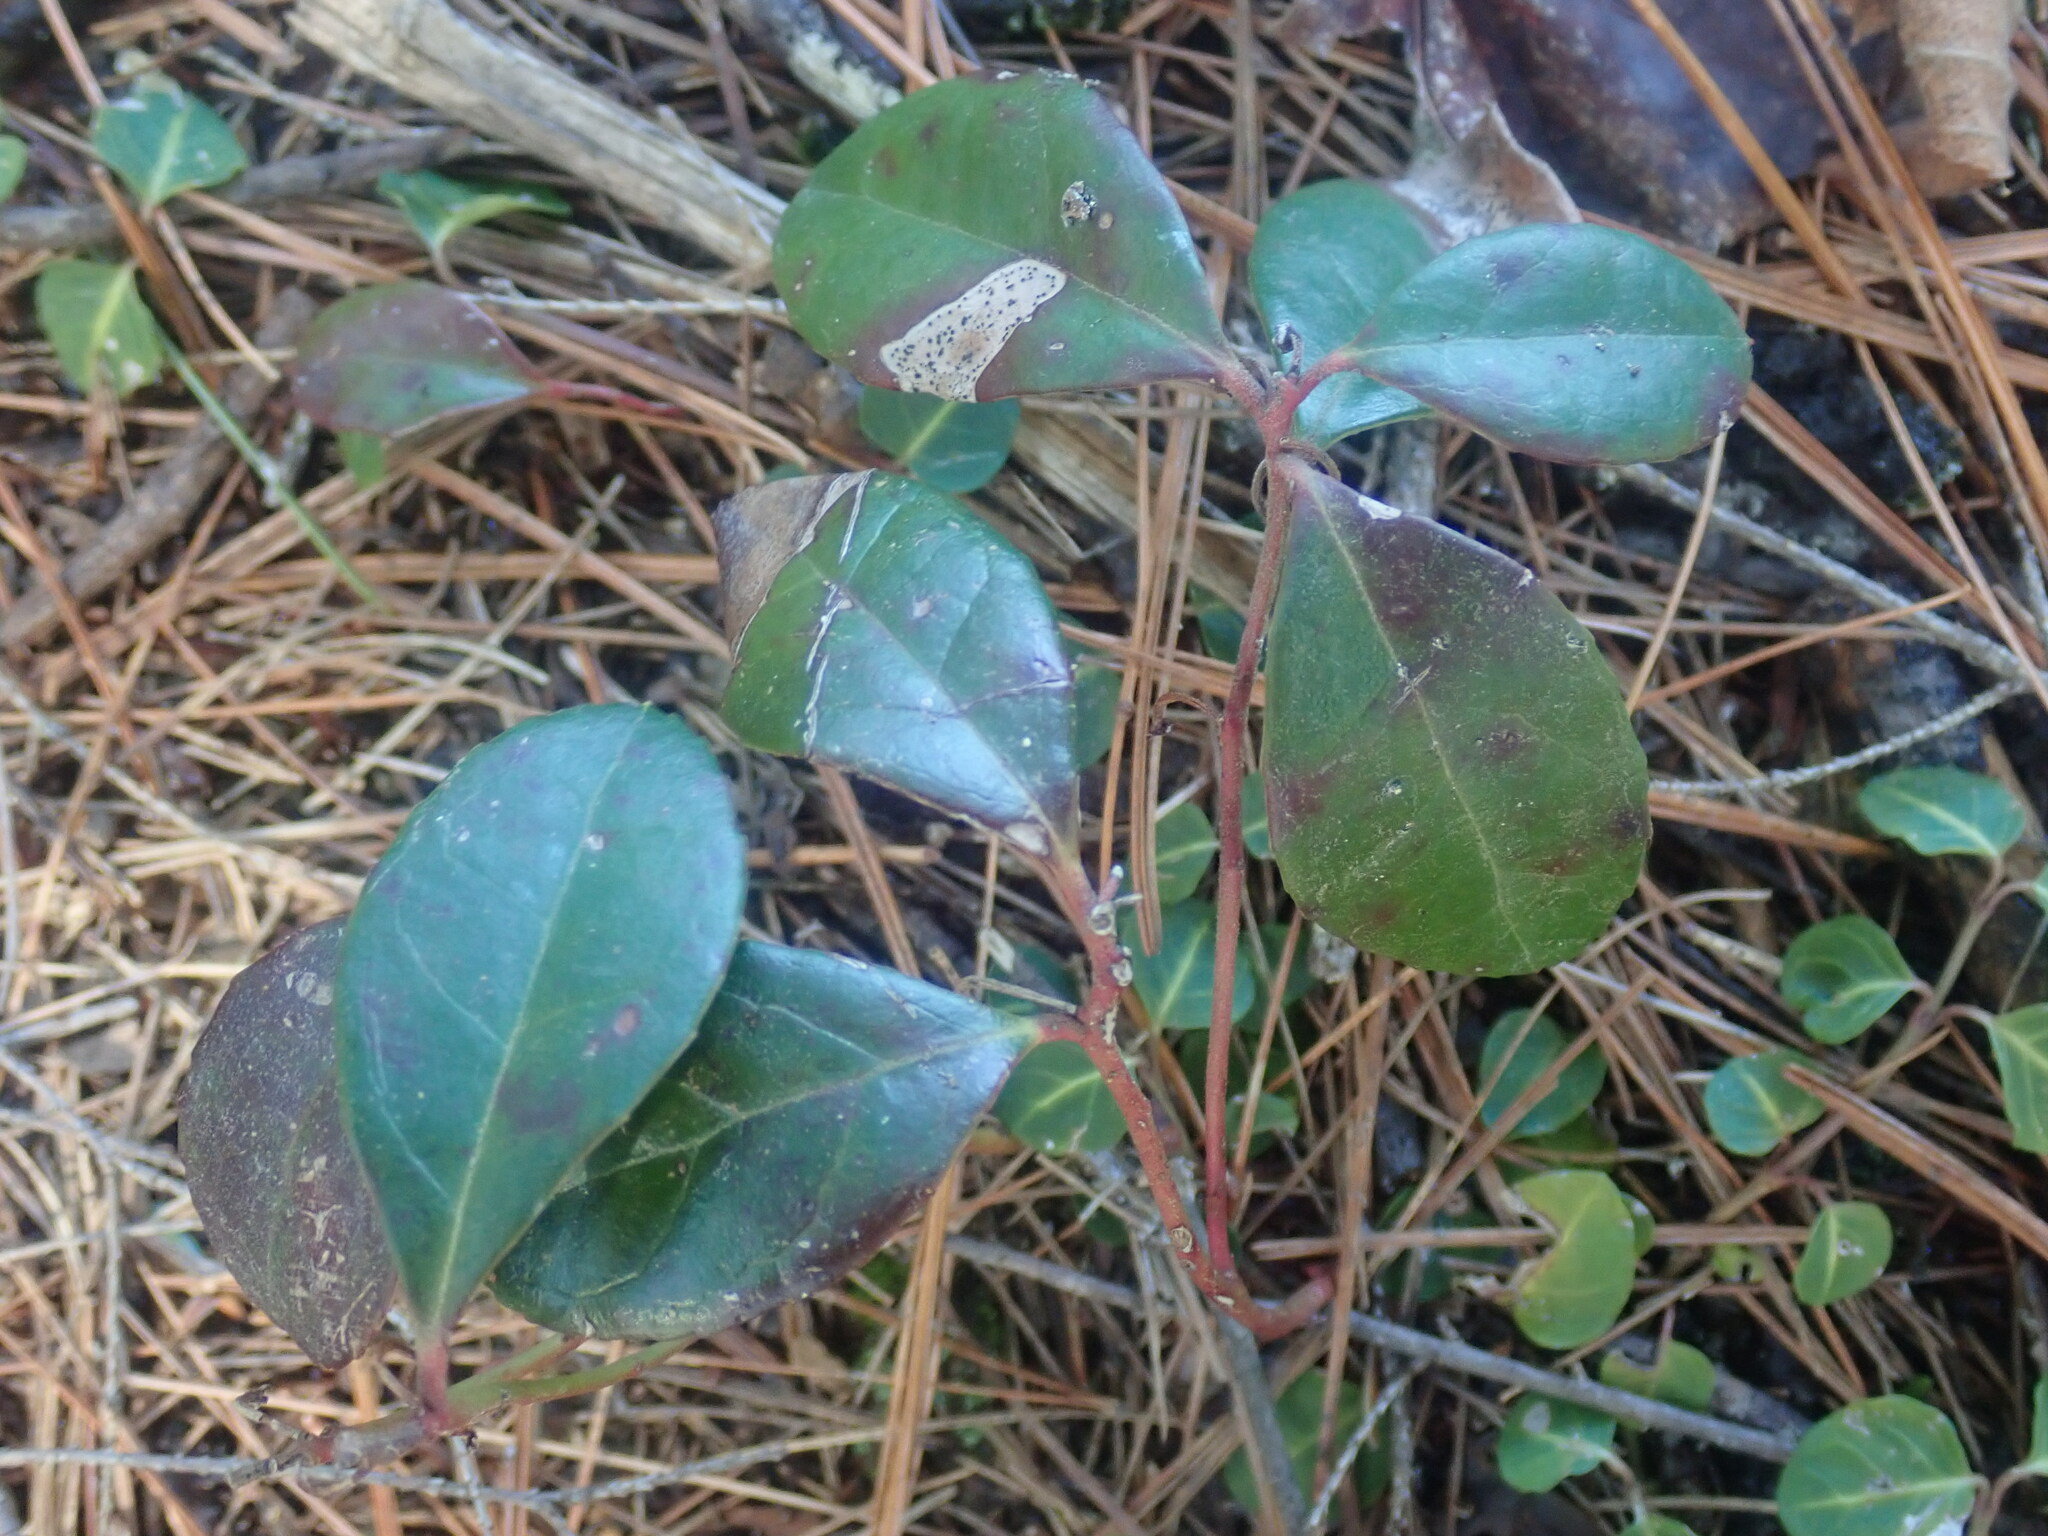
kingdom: Plantae
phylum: Tracheophyta
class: Magnoliopsida
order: Ericales
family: Ericaceae
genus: Gaultheria
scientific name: Gaultheria procumbens
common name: Checkerberry
